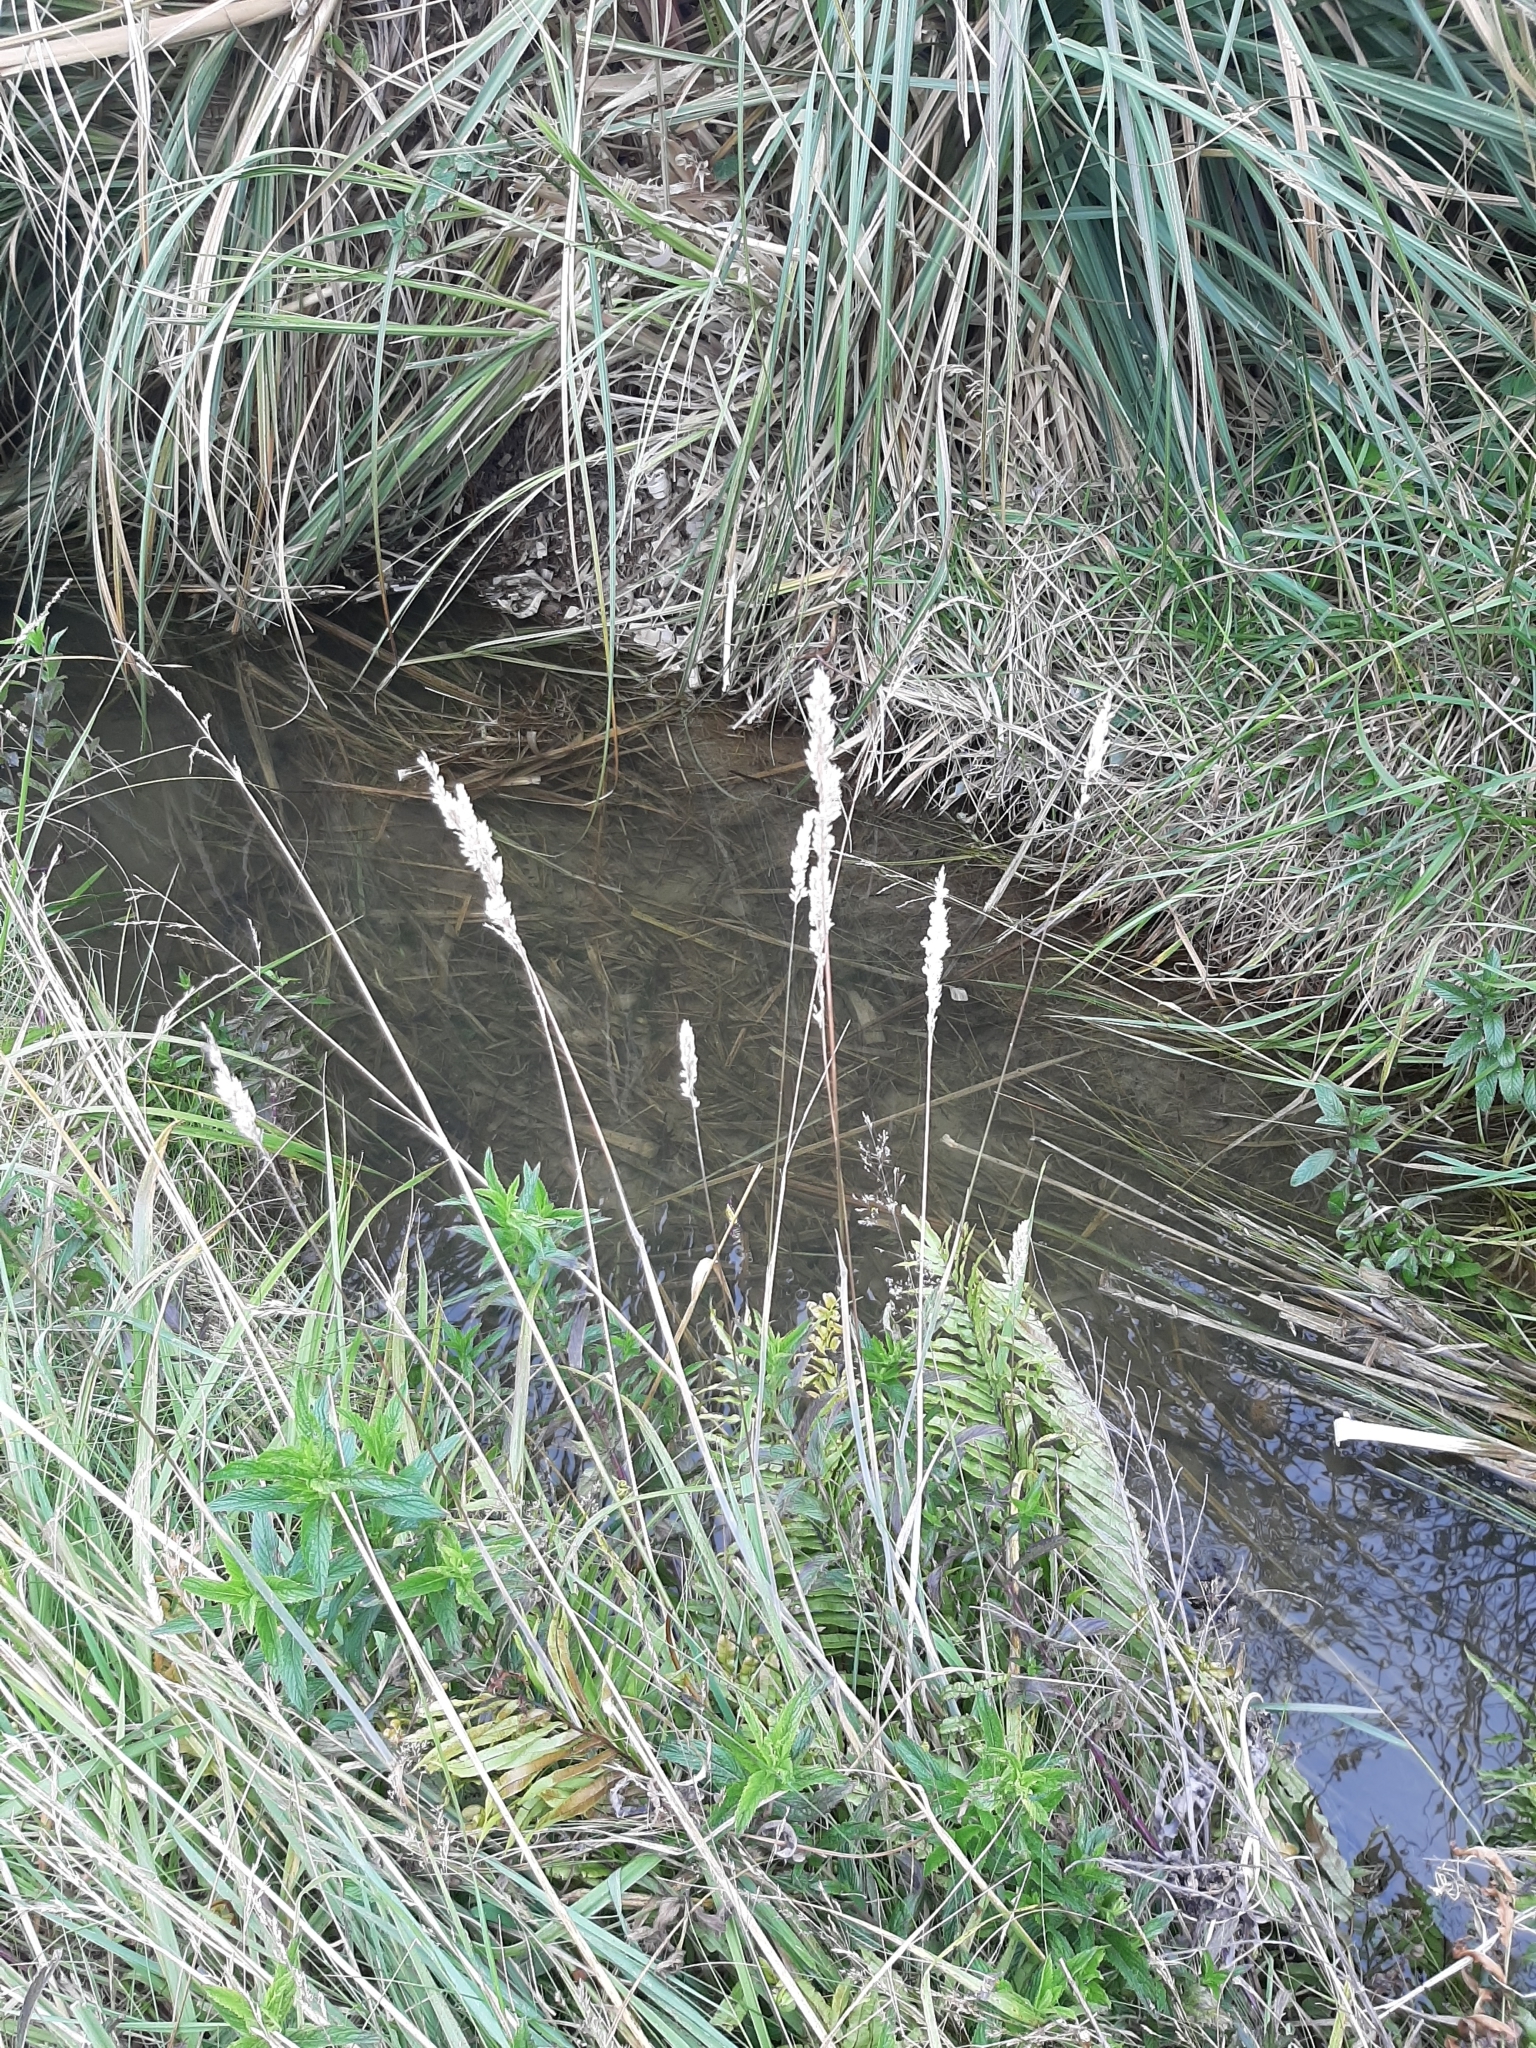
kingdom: Plantae
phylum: Tracheophyta
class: Liliopsida
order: Poales
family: Poaceae
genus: Holcus
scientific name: Holcus lanatus
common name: Yorkshire-fog
